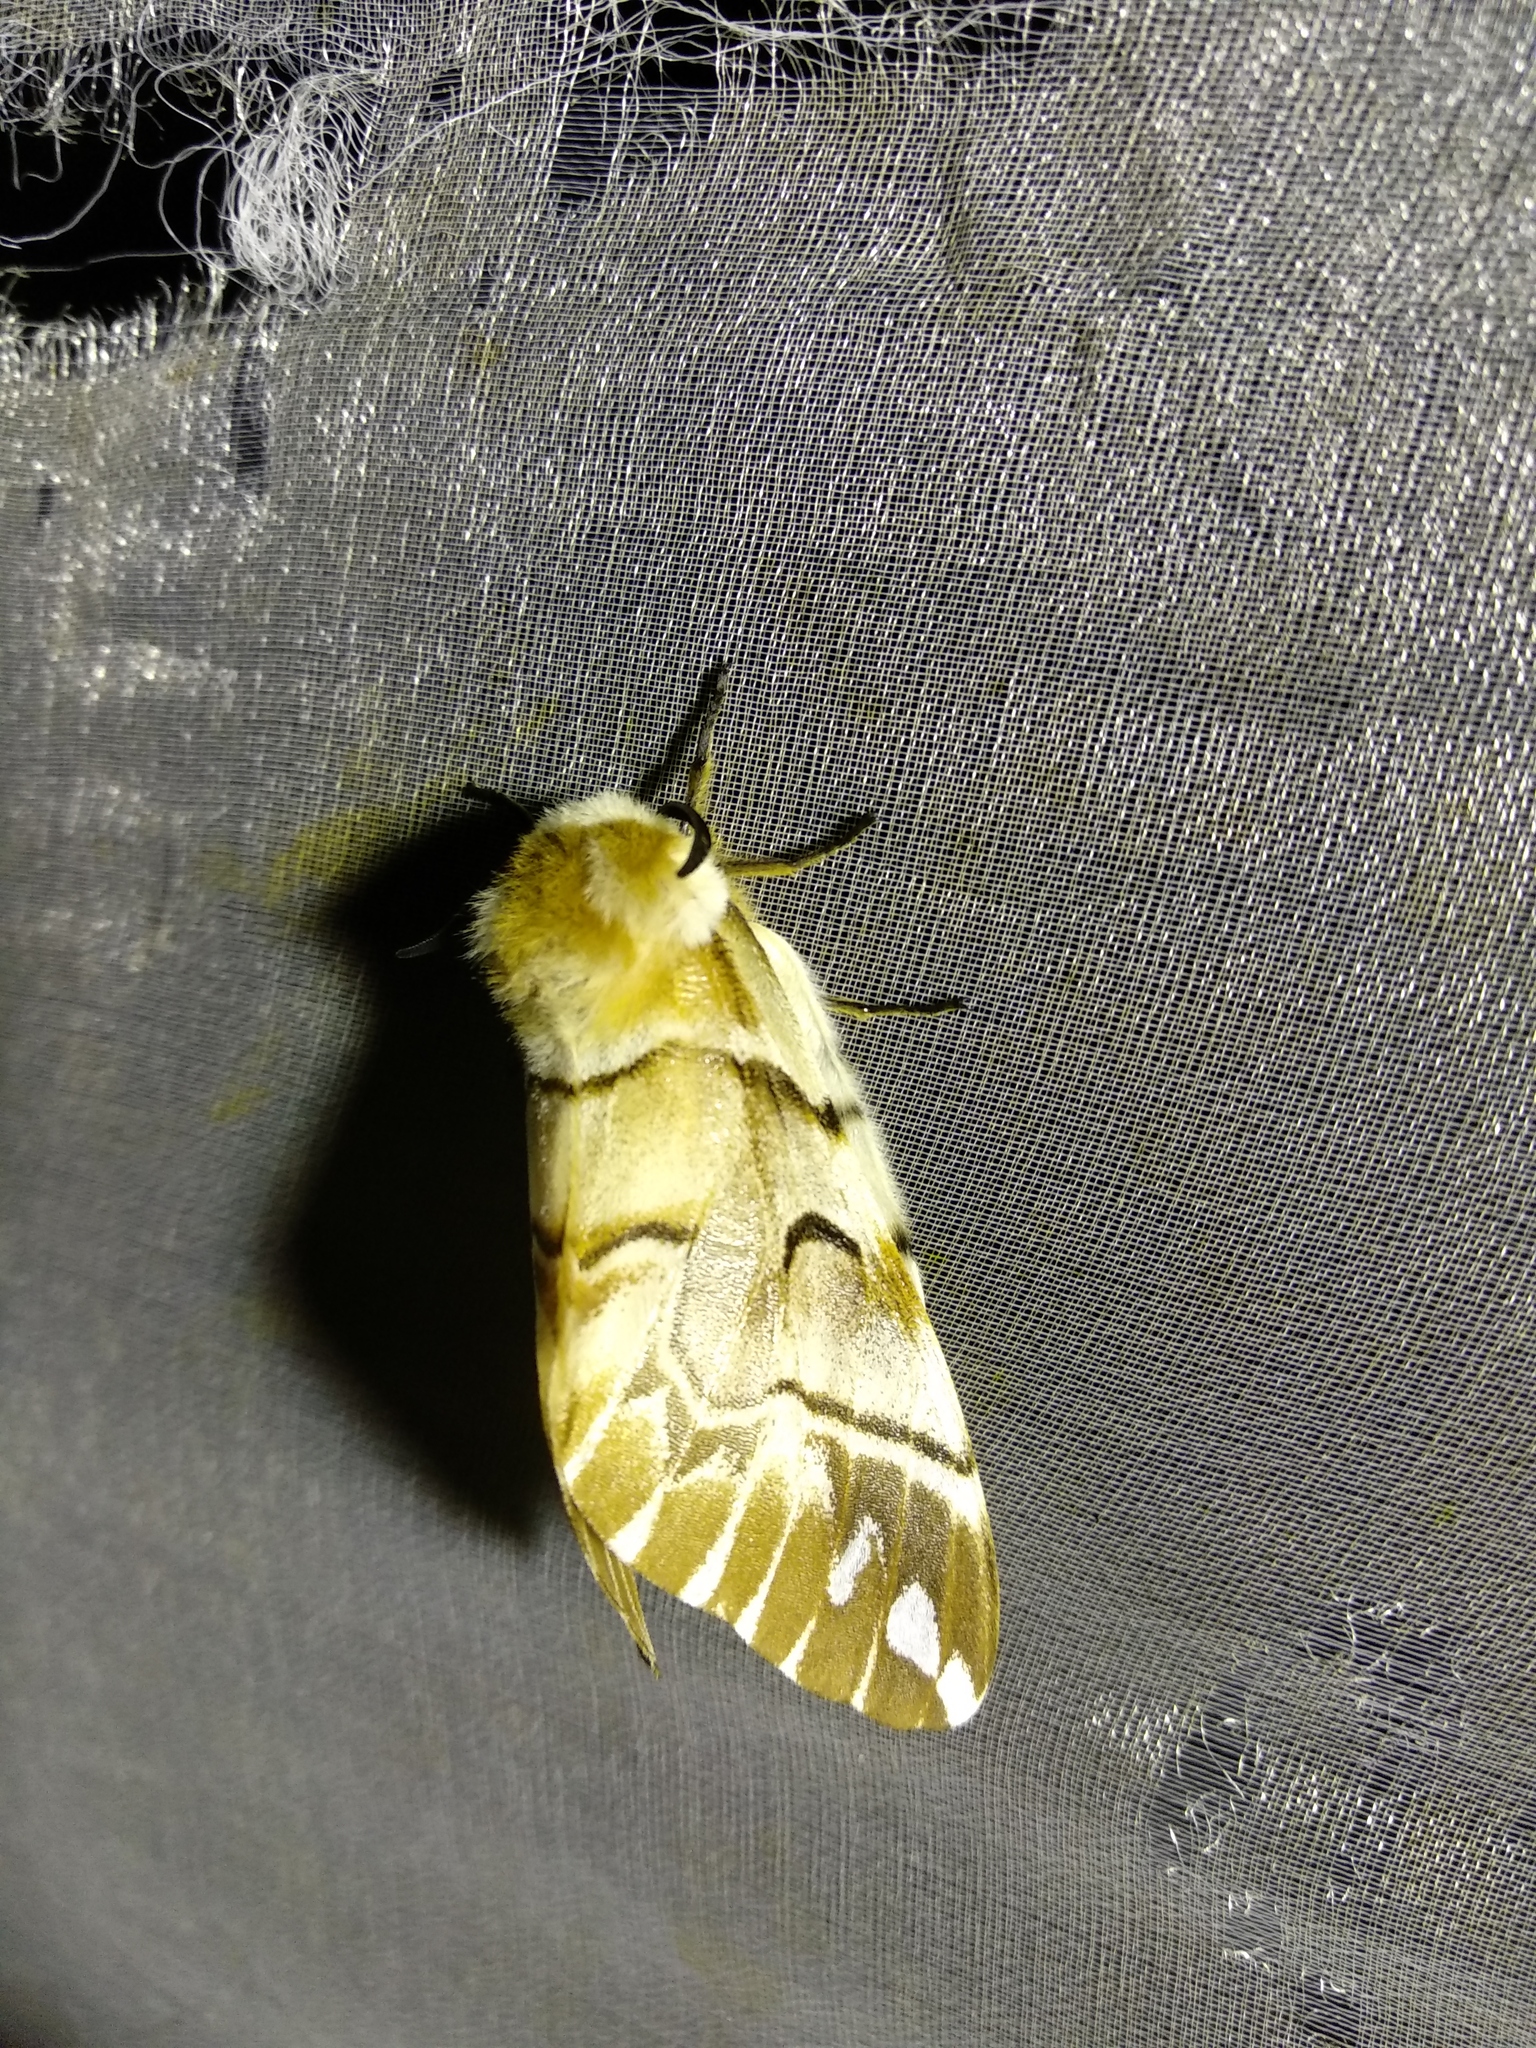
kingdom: Animalia
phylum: Arthropoda
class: Insecta
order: Lepidoptera
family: Endromidae
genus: Endromis
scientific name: Endromis versicolora
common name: Kentish glory
